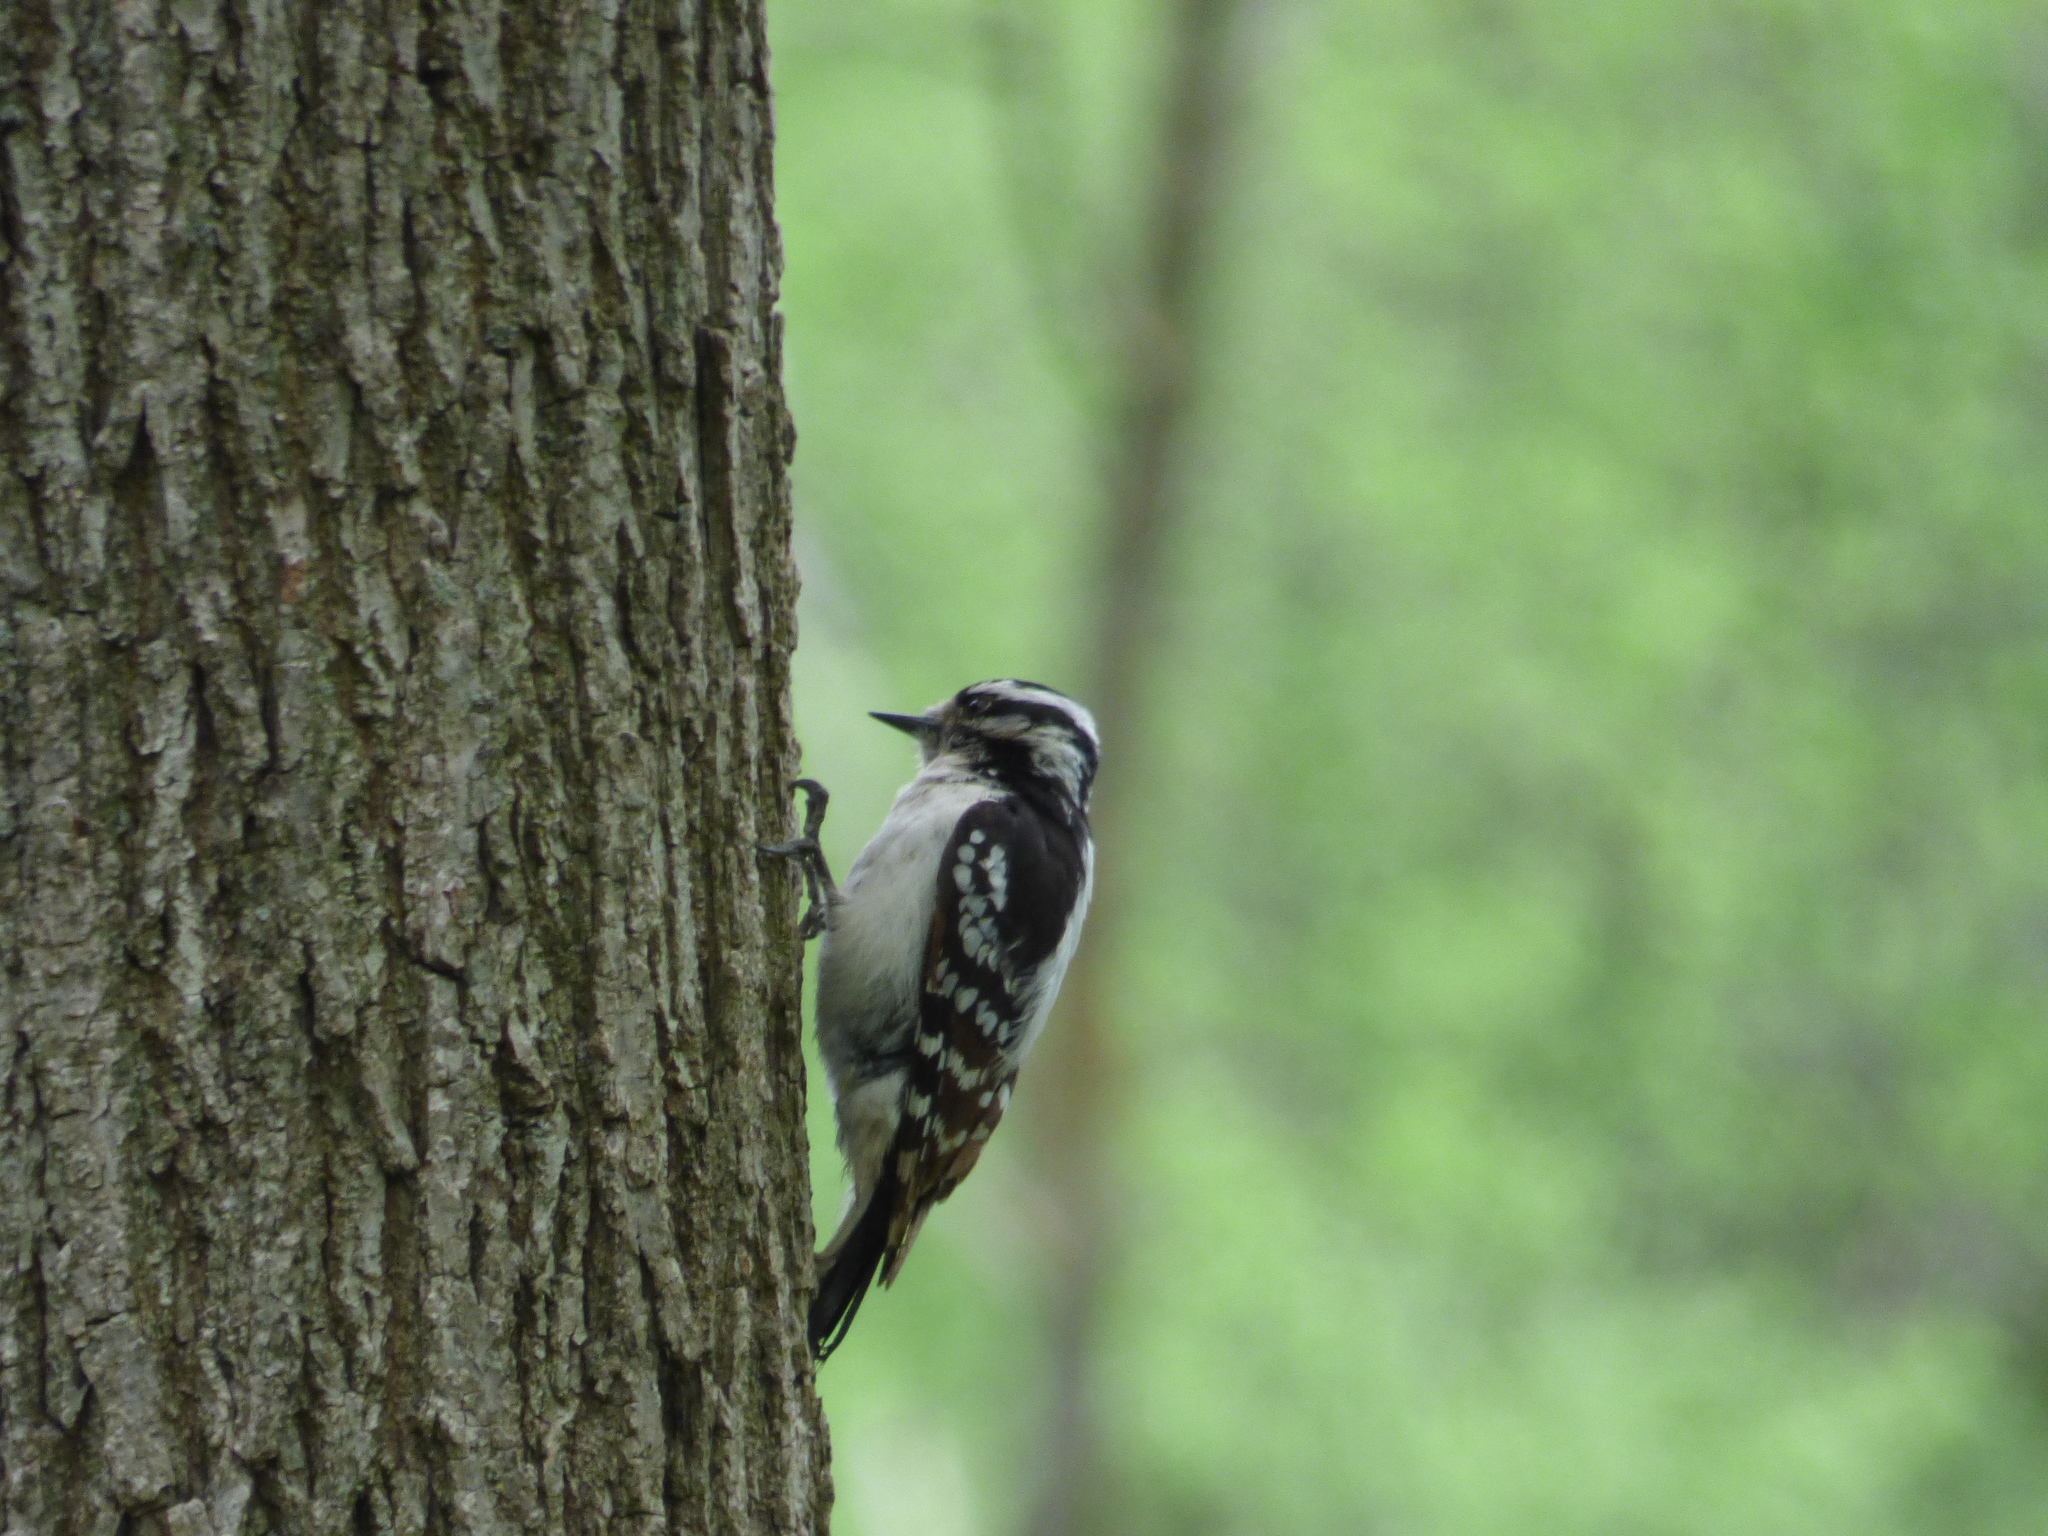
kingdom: Animalia
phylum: Chordata
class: Aves
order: Piciformes
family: Picidae
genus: Dryobates
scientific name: Dryobates pubescens
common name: Downy woodpecker
